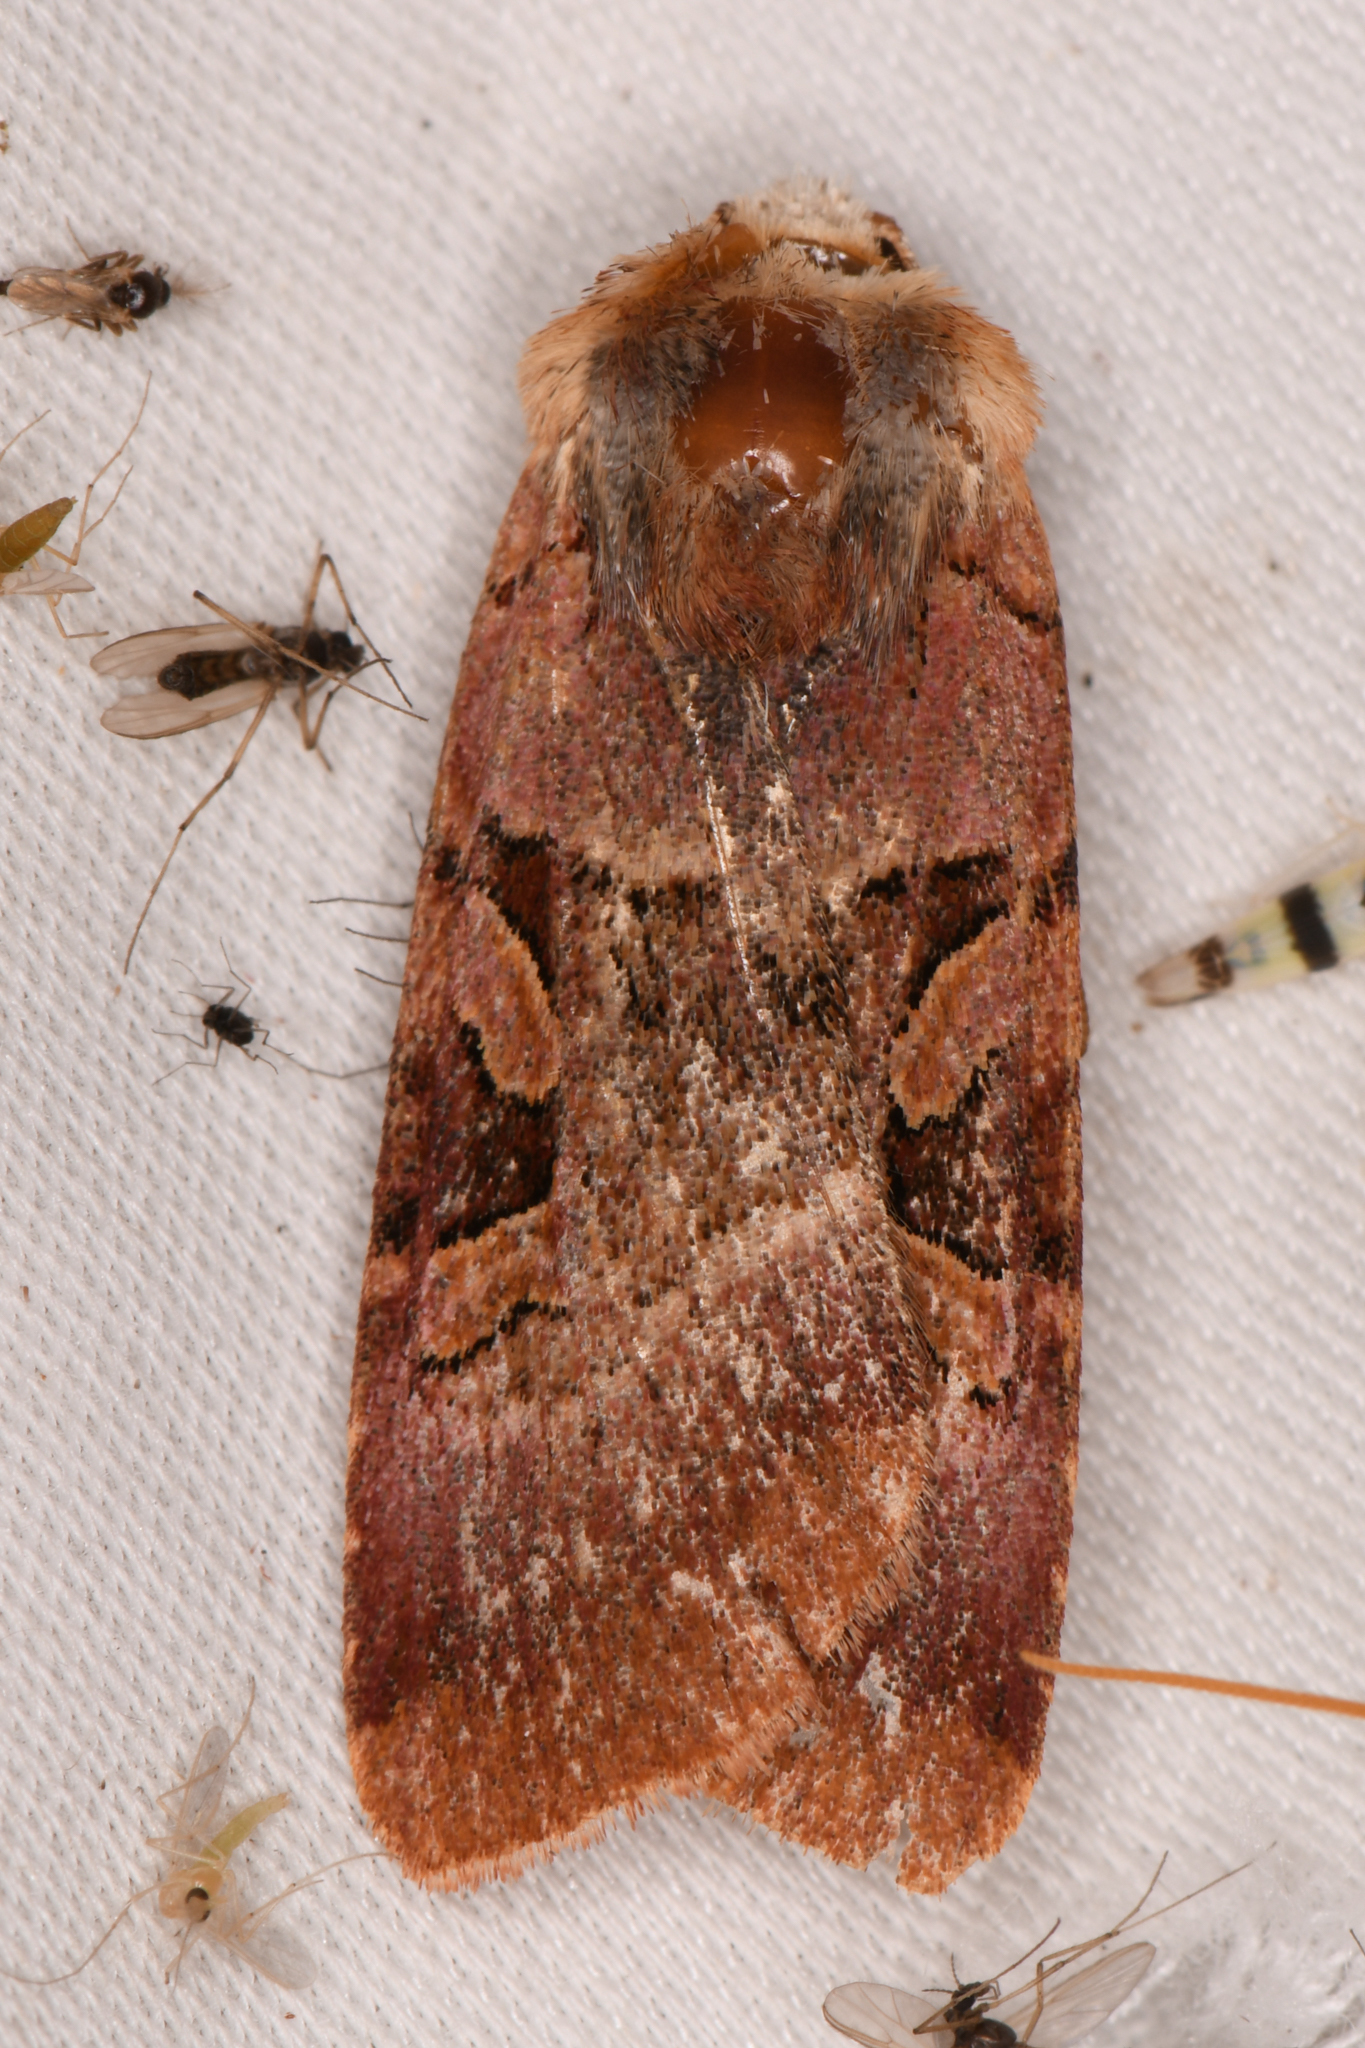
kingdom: Animalia
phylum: Arthropoda
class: Insecta
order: Lepidoptera
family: Noctuidae
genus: Xestia
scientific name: Xestia oblata
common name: Rosy dart
